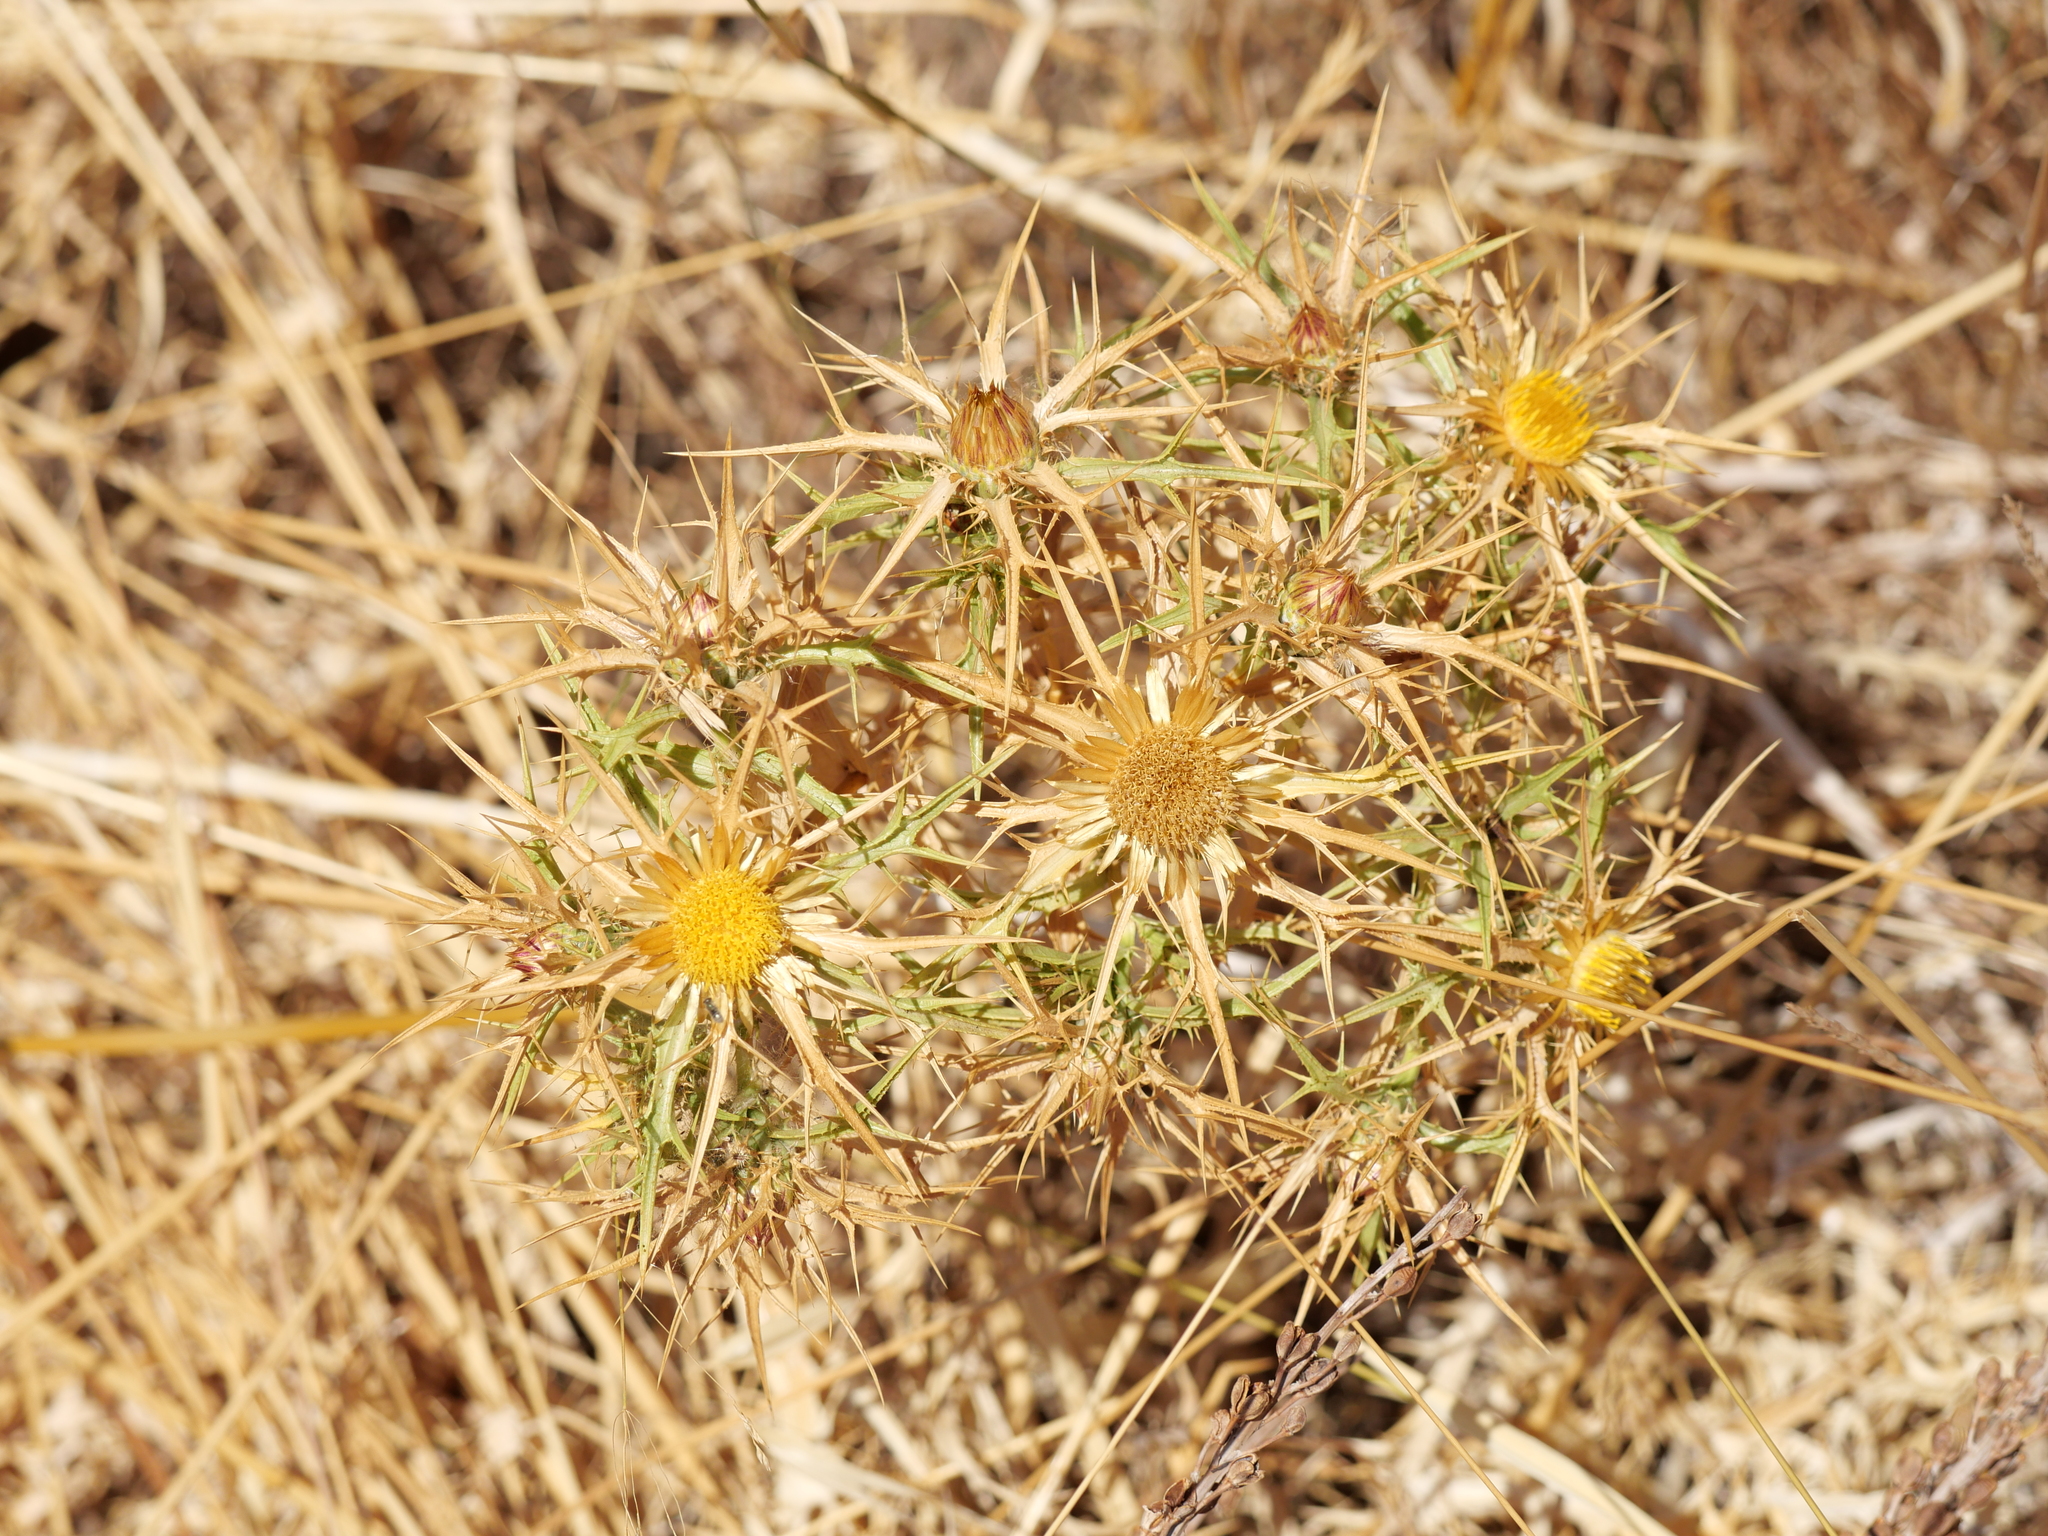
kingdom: Plantae
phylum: Tracheophyta
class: Magnoliopsida
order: Asterales
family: Asteraceae
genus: Carlina
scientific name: Carlina graeca
